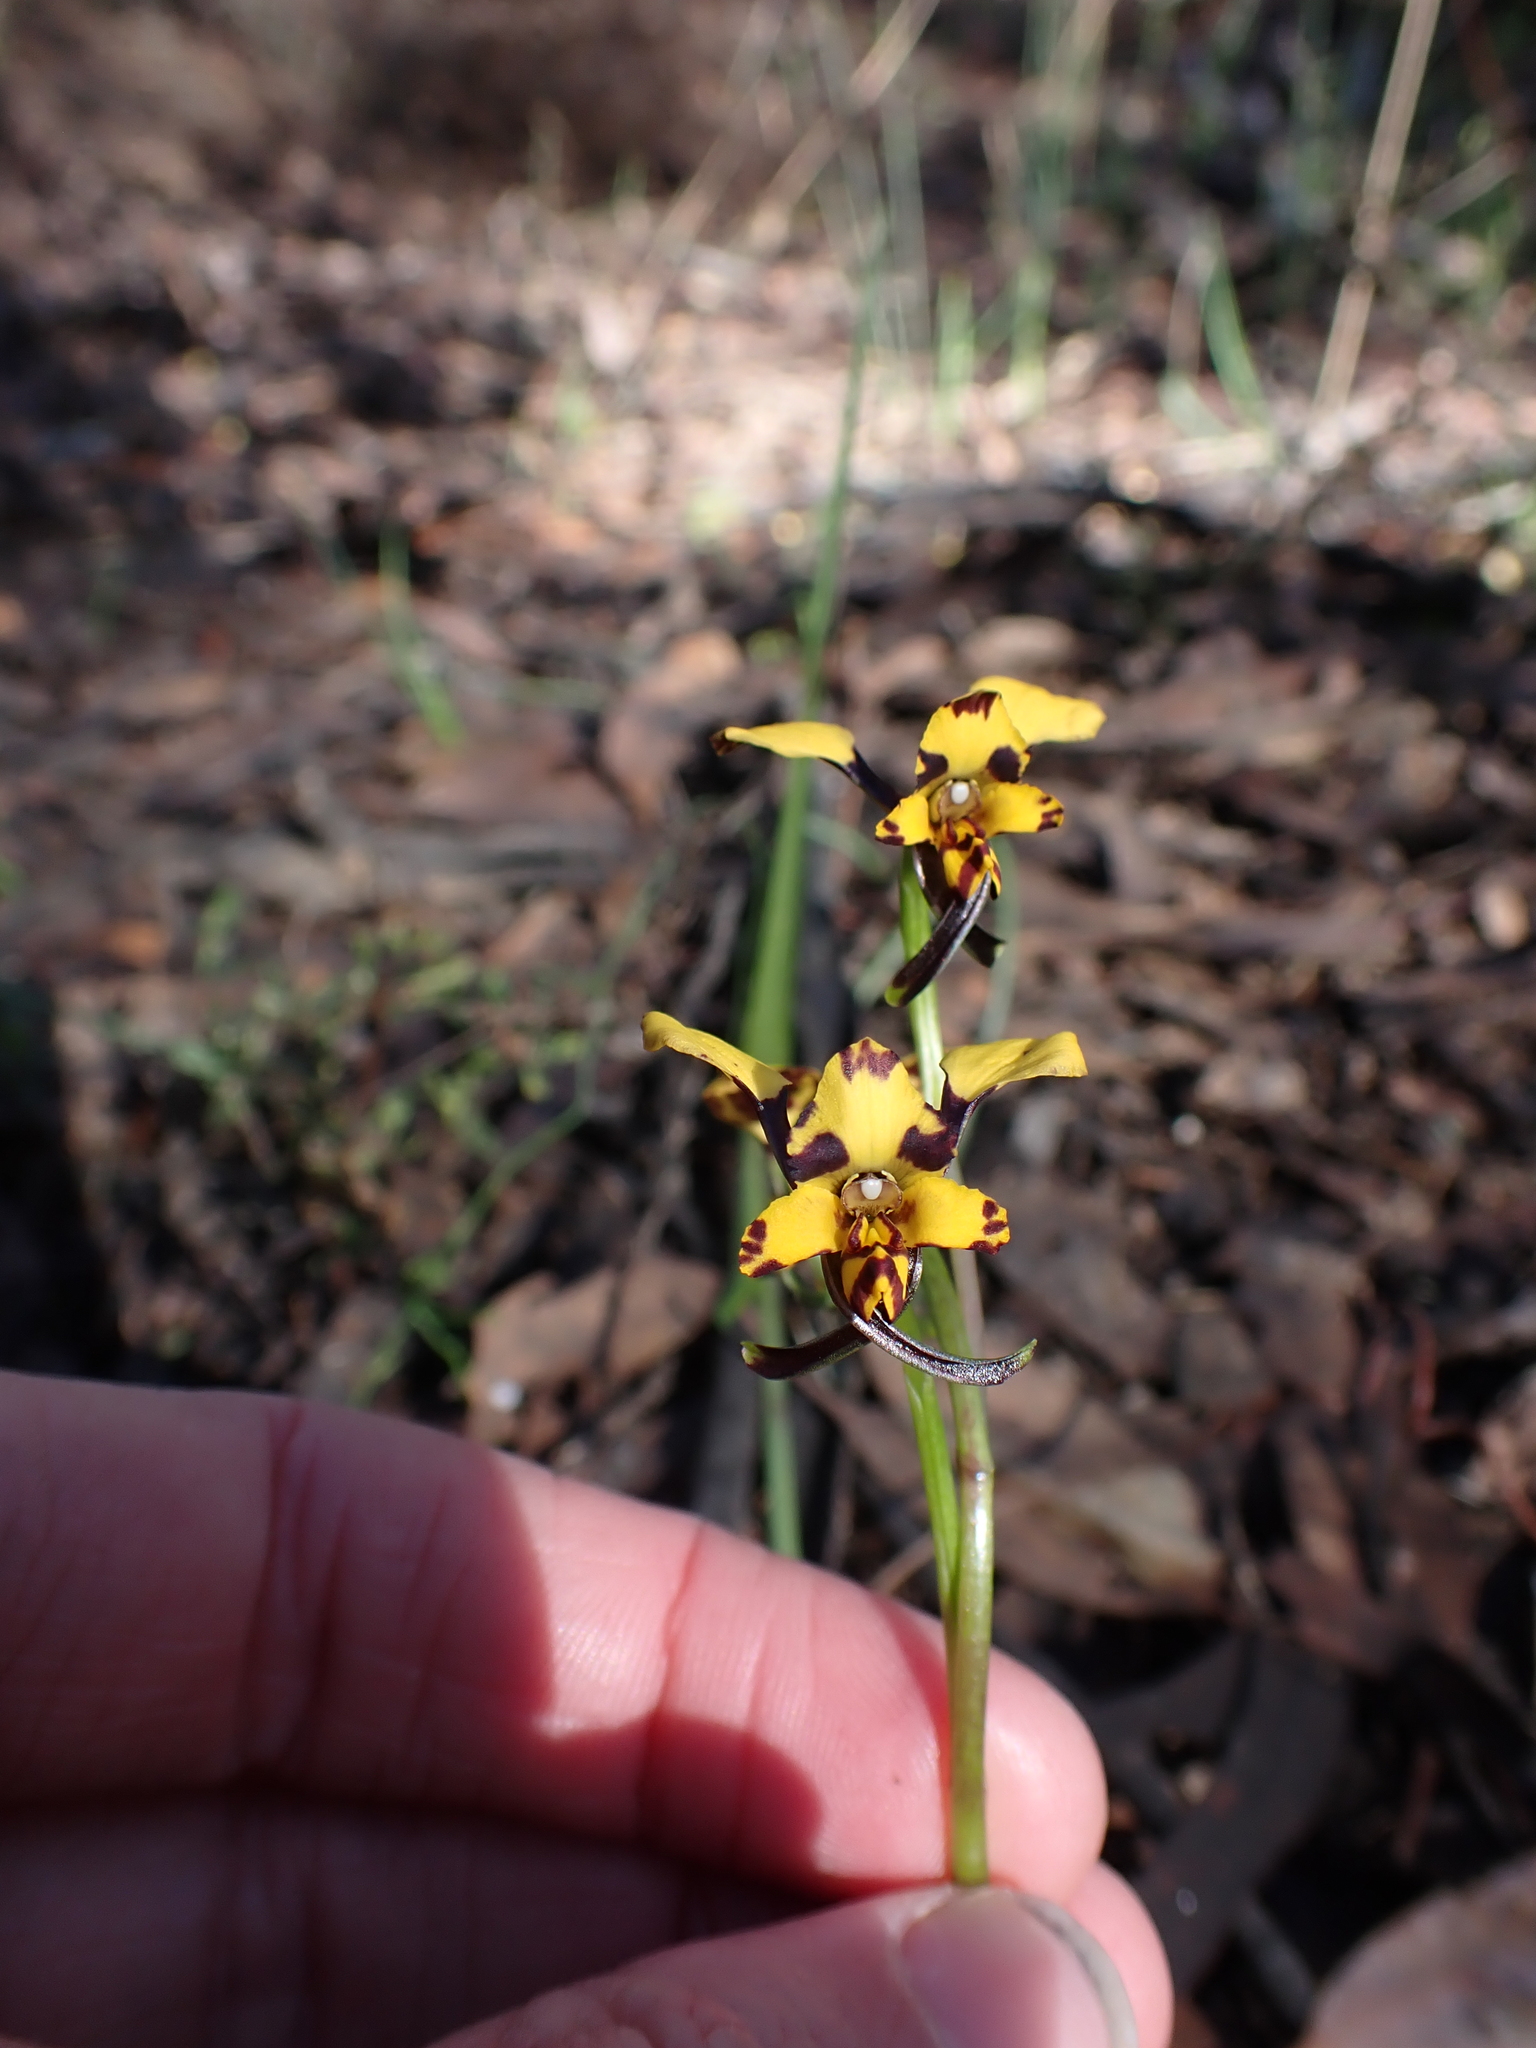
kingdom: Plantae
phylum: Tracheophyta
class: Liliopsida
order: Asparagales
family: Orchidaceae
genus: Diuris
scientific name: Diuris pardina
